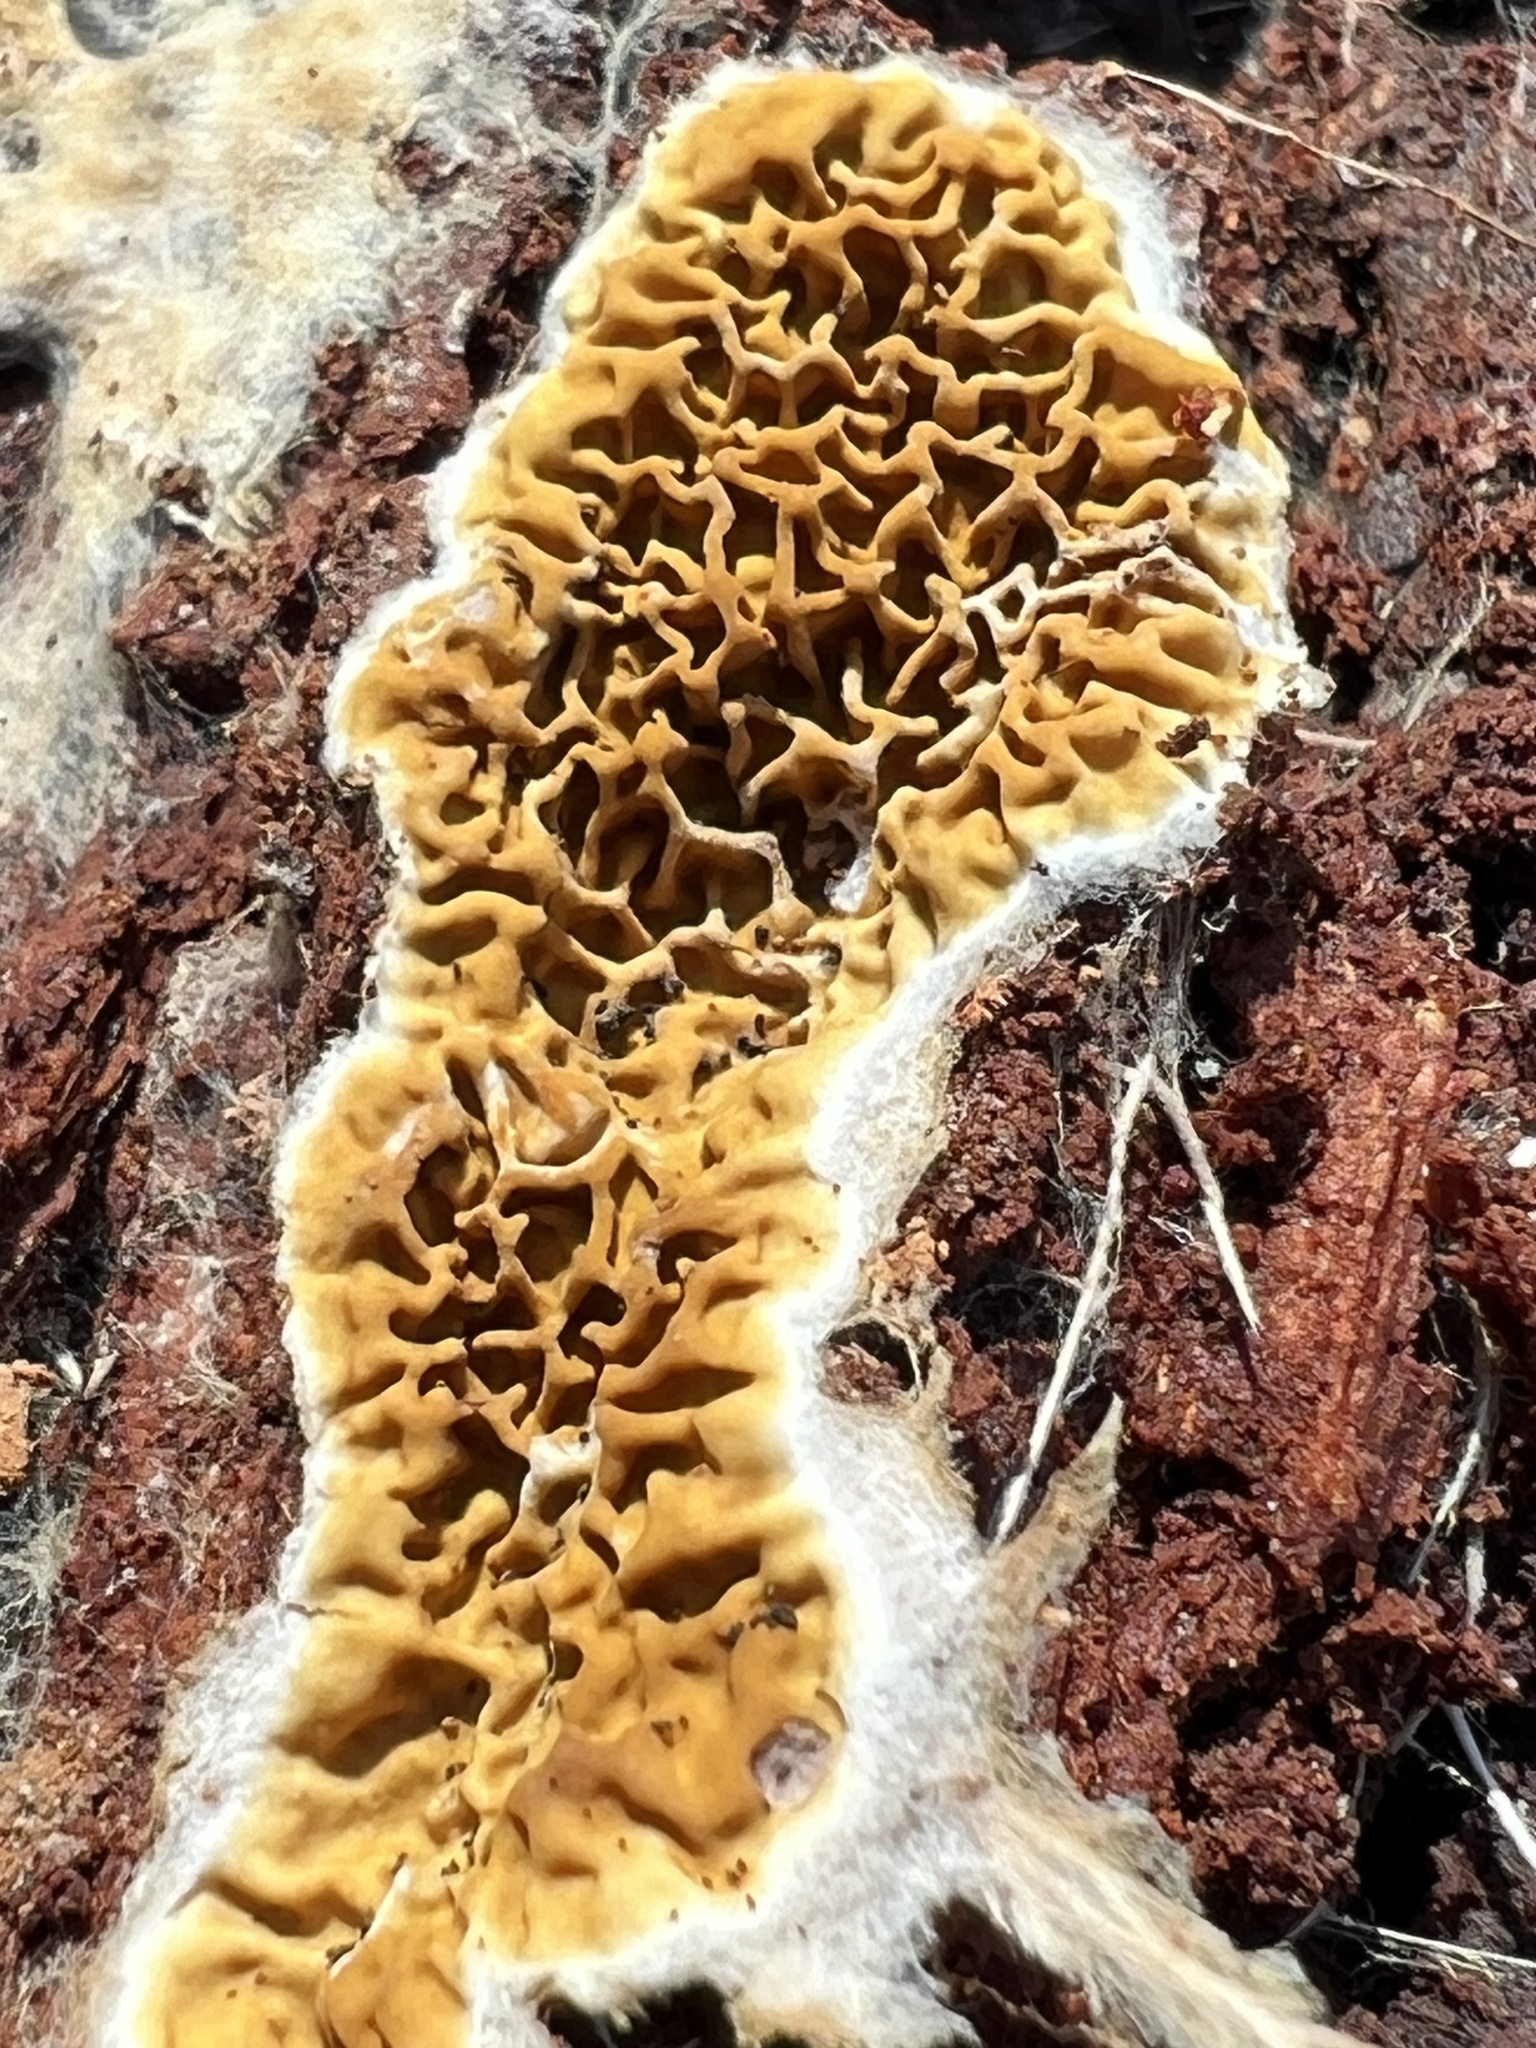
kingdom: Fungi
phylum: Basidiomycota
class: Agaricomycetes
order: Boletales
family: Serpulaceae
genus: Serpula
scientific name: Serpula himantioides
